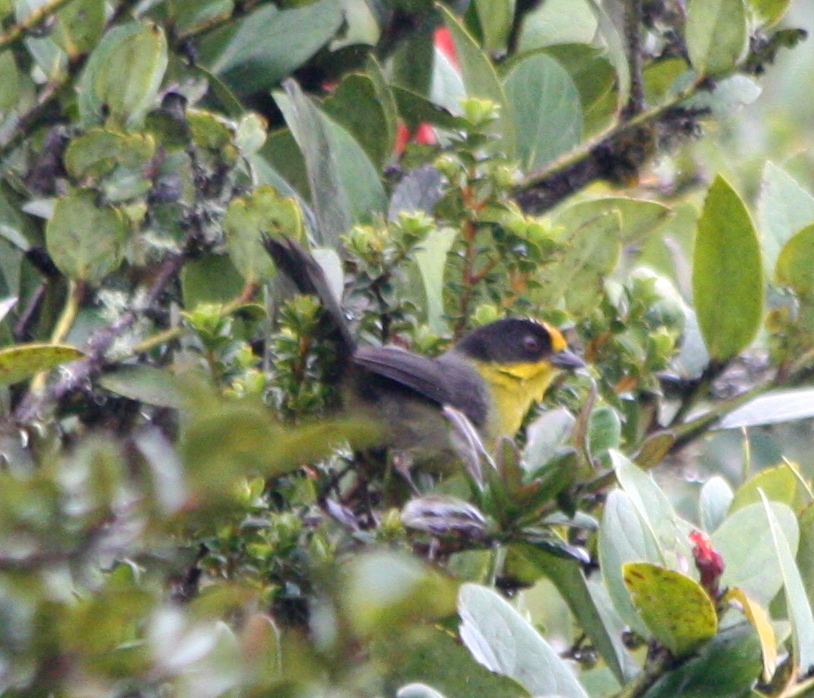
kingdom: Animalia
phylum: Chordata
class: Aves
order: Passeriformes
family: Passerellidae
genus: Atlapetes
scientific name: Atlapetes pallidinucha
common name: Pale-naped brushfinch
